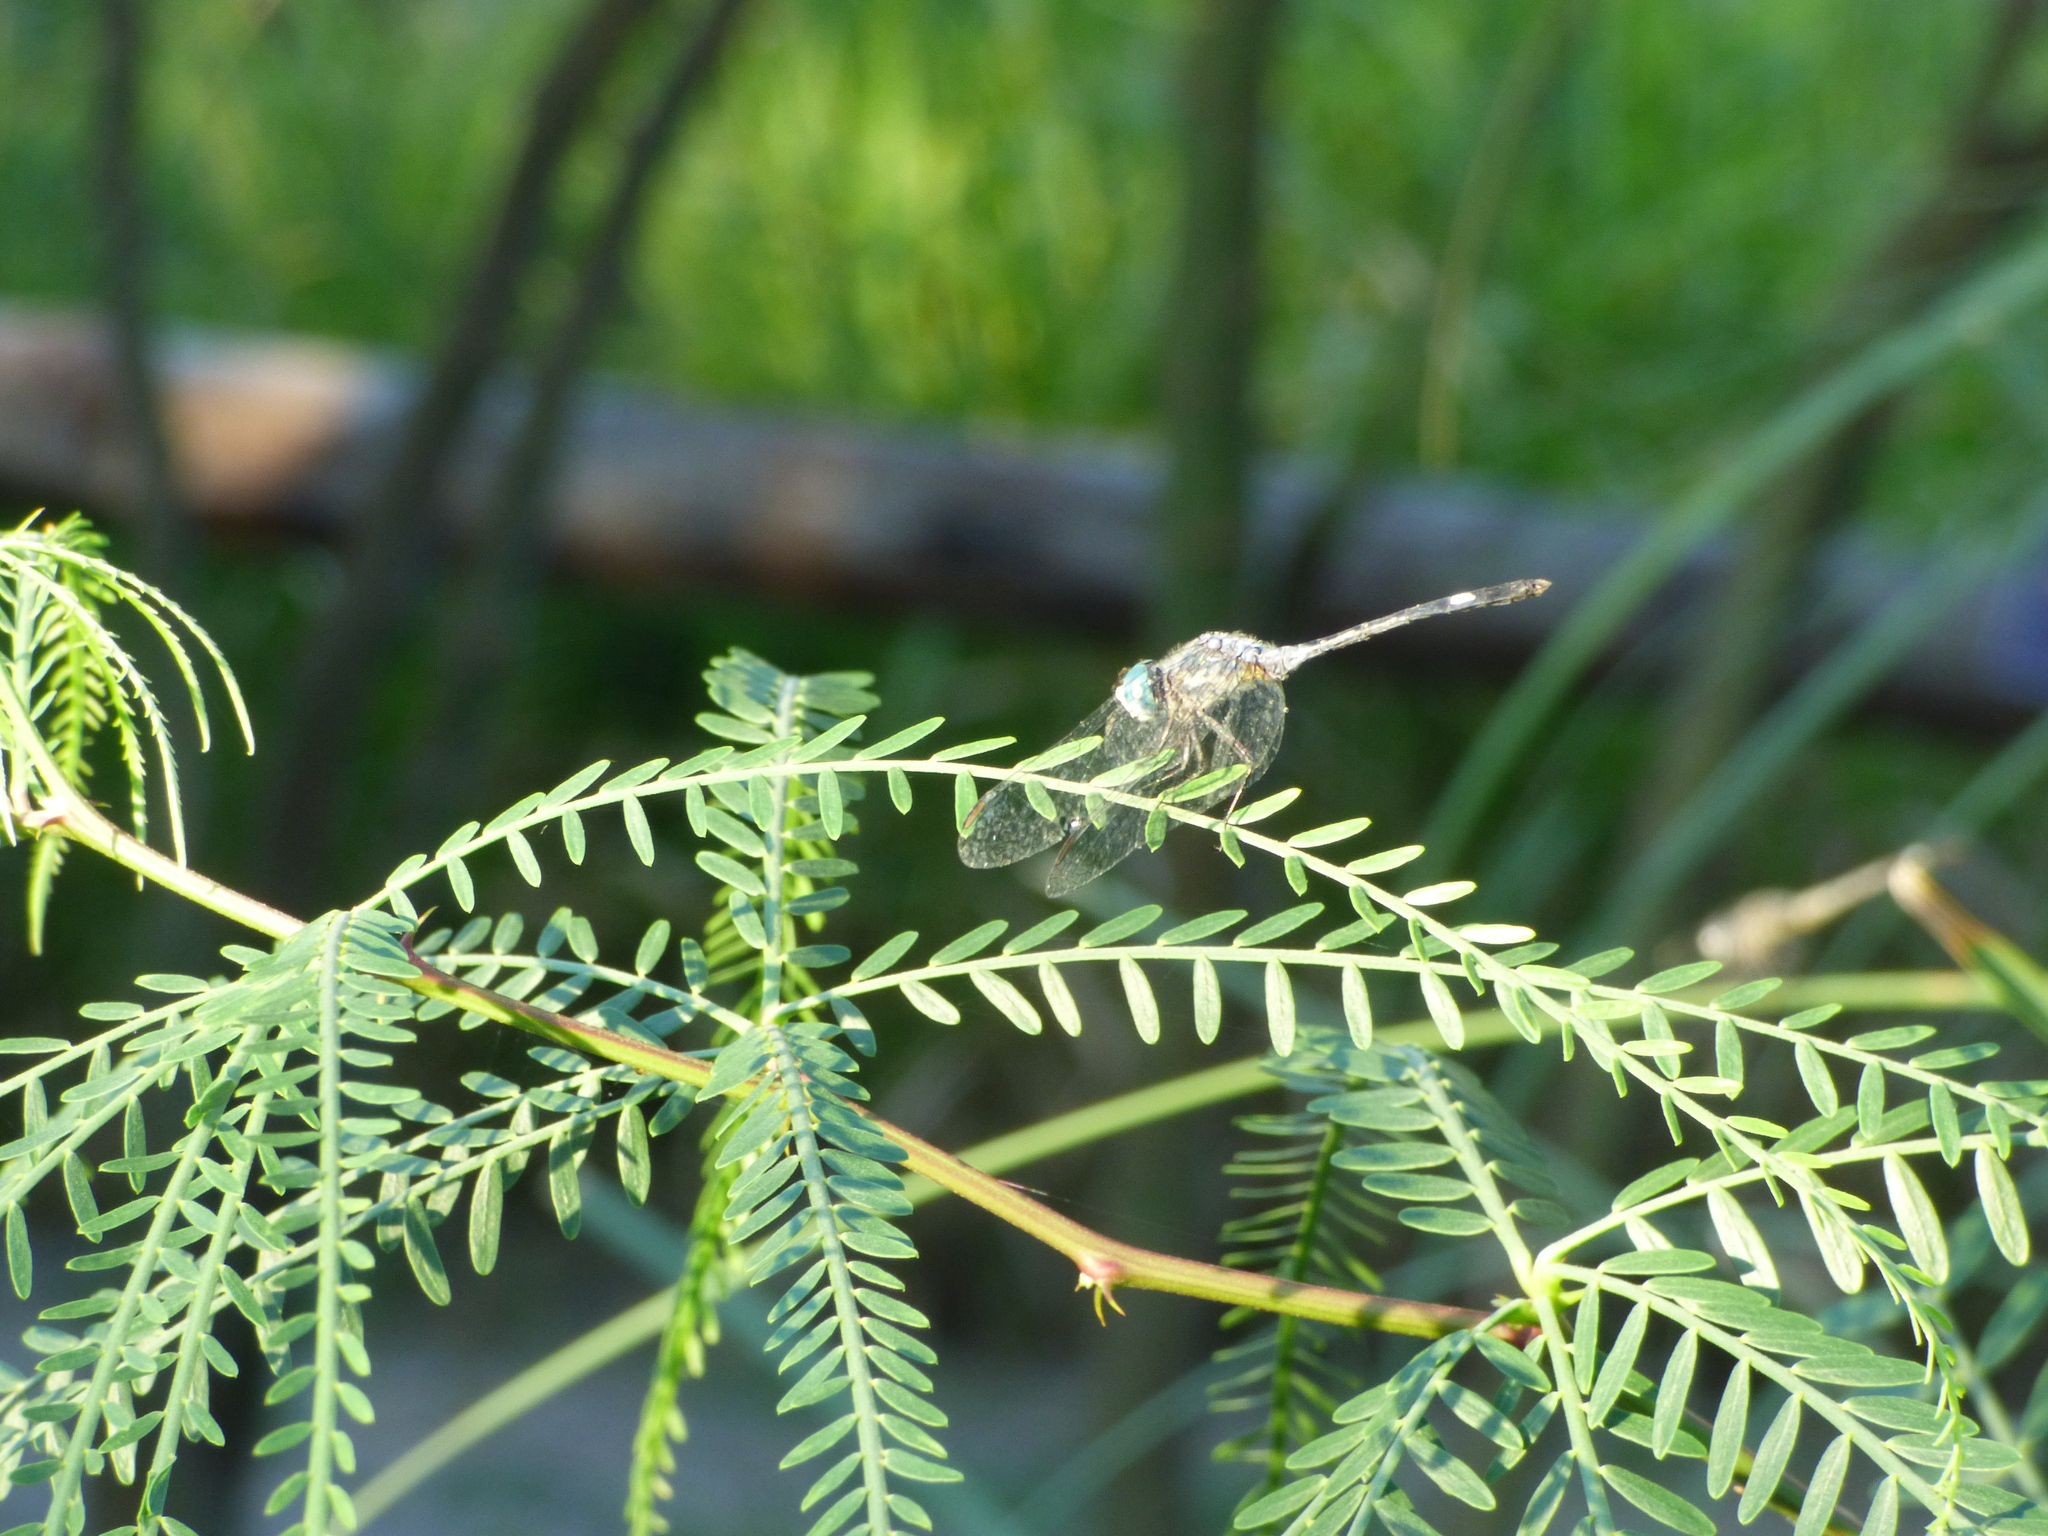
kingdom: Animalia
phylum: Arthropoda
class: Insecta
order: Odonata
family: Libellulidae
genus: Micrathyria
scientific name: Micrathyria longifasciata
